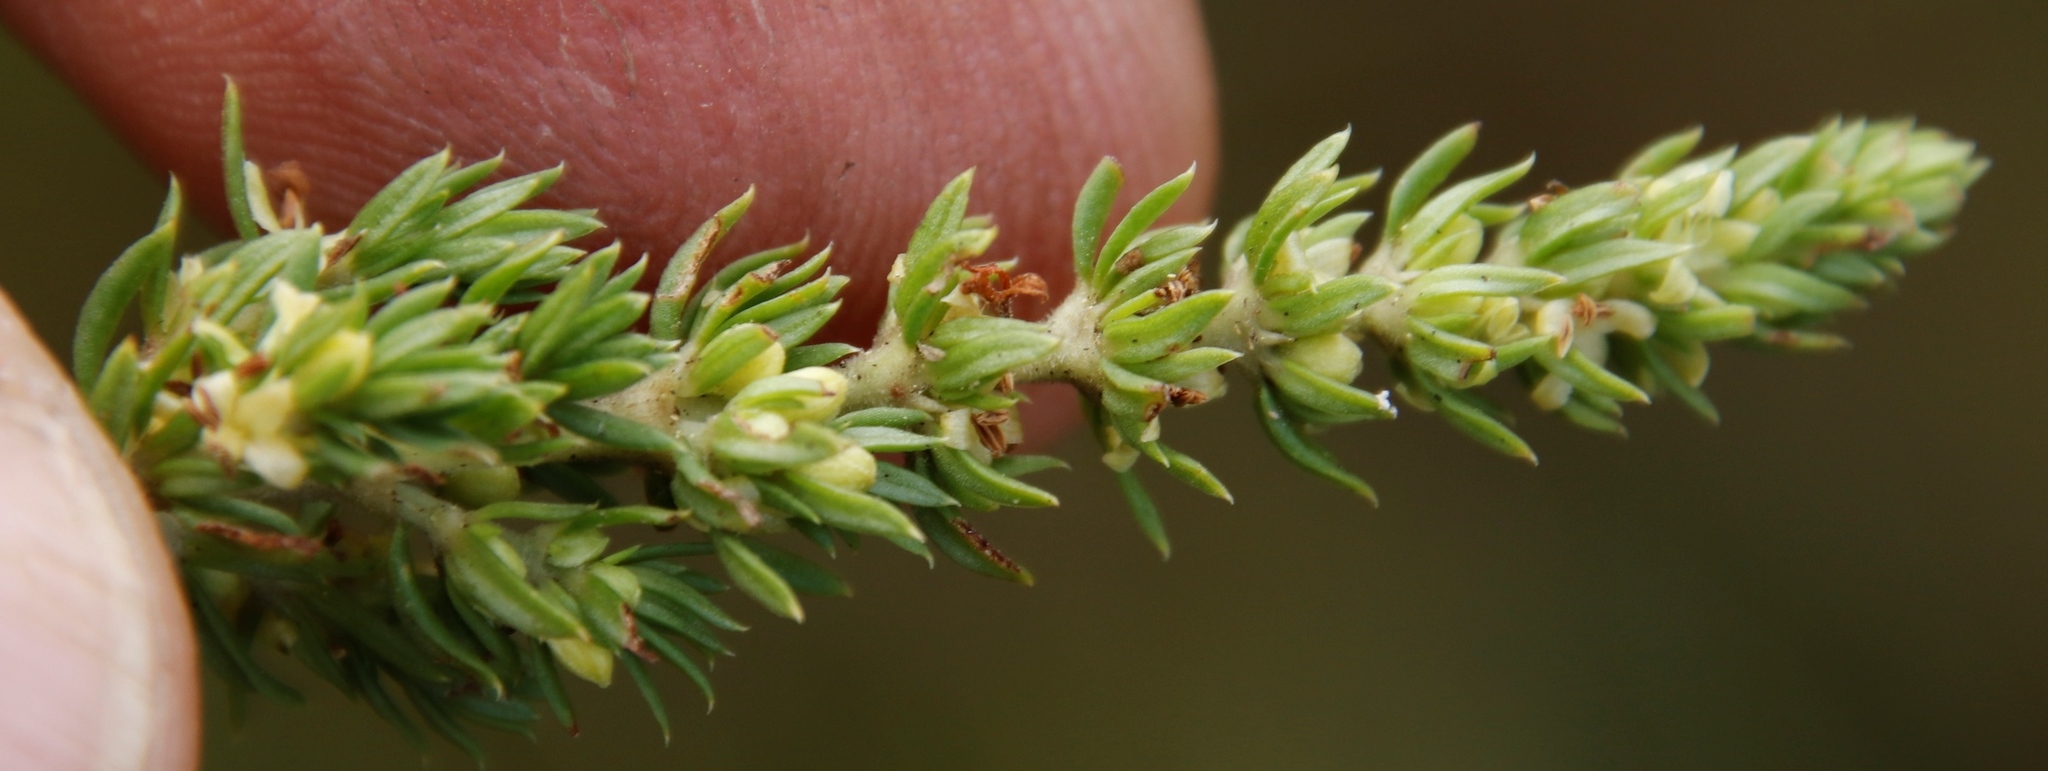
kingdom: Plantae
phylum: Tracheophyta
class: Magnoliopsida
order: Gentianales
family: Rubiaceae
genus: Anthospermum
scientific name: Anthospermum rigidum
